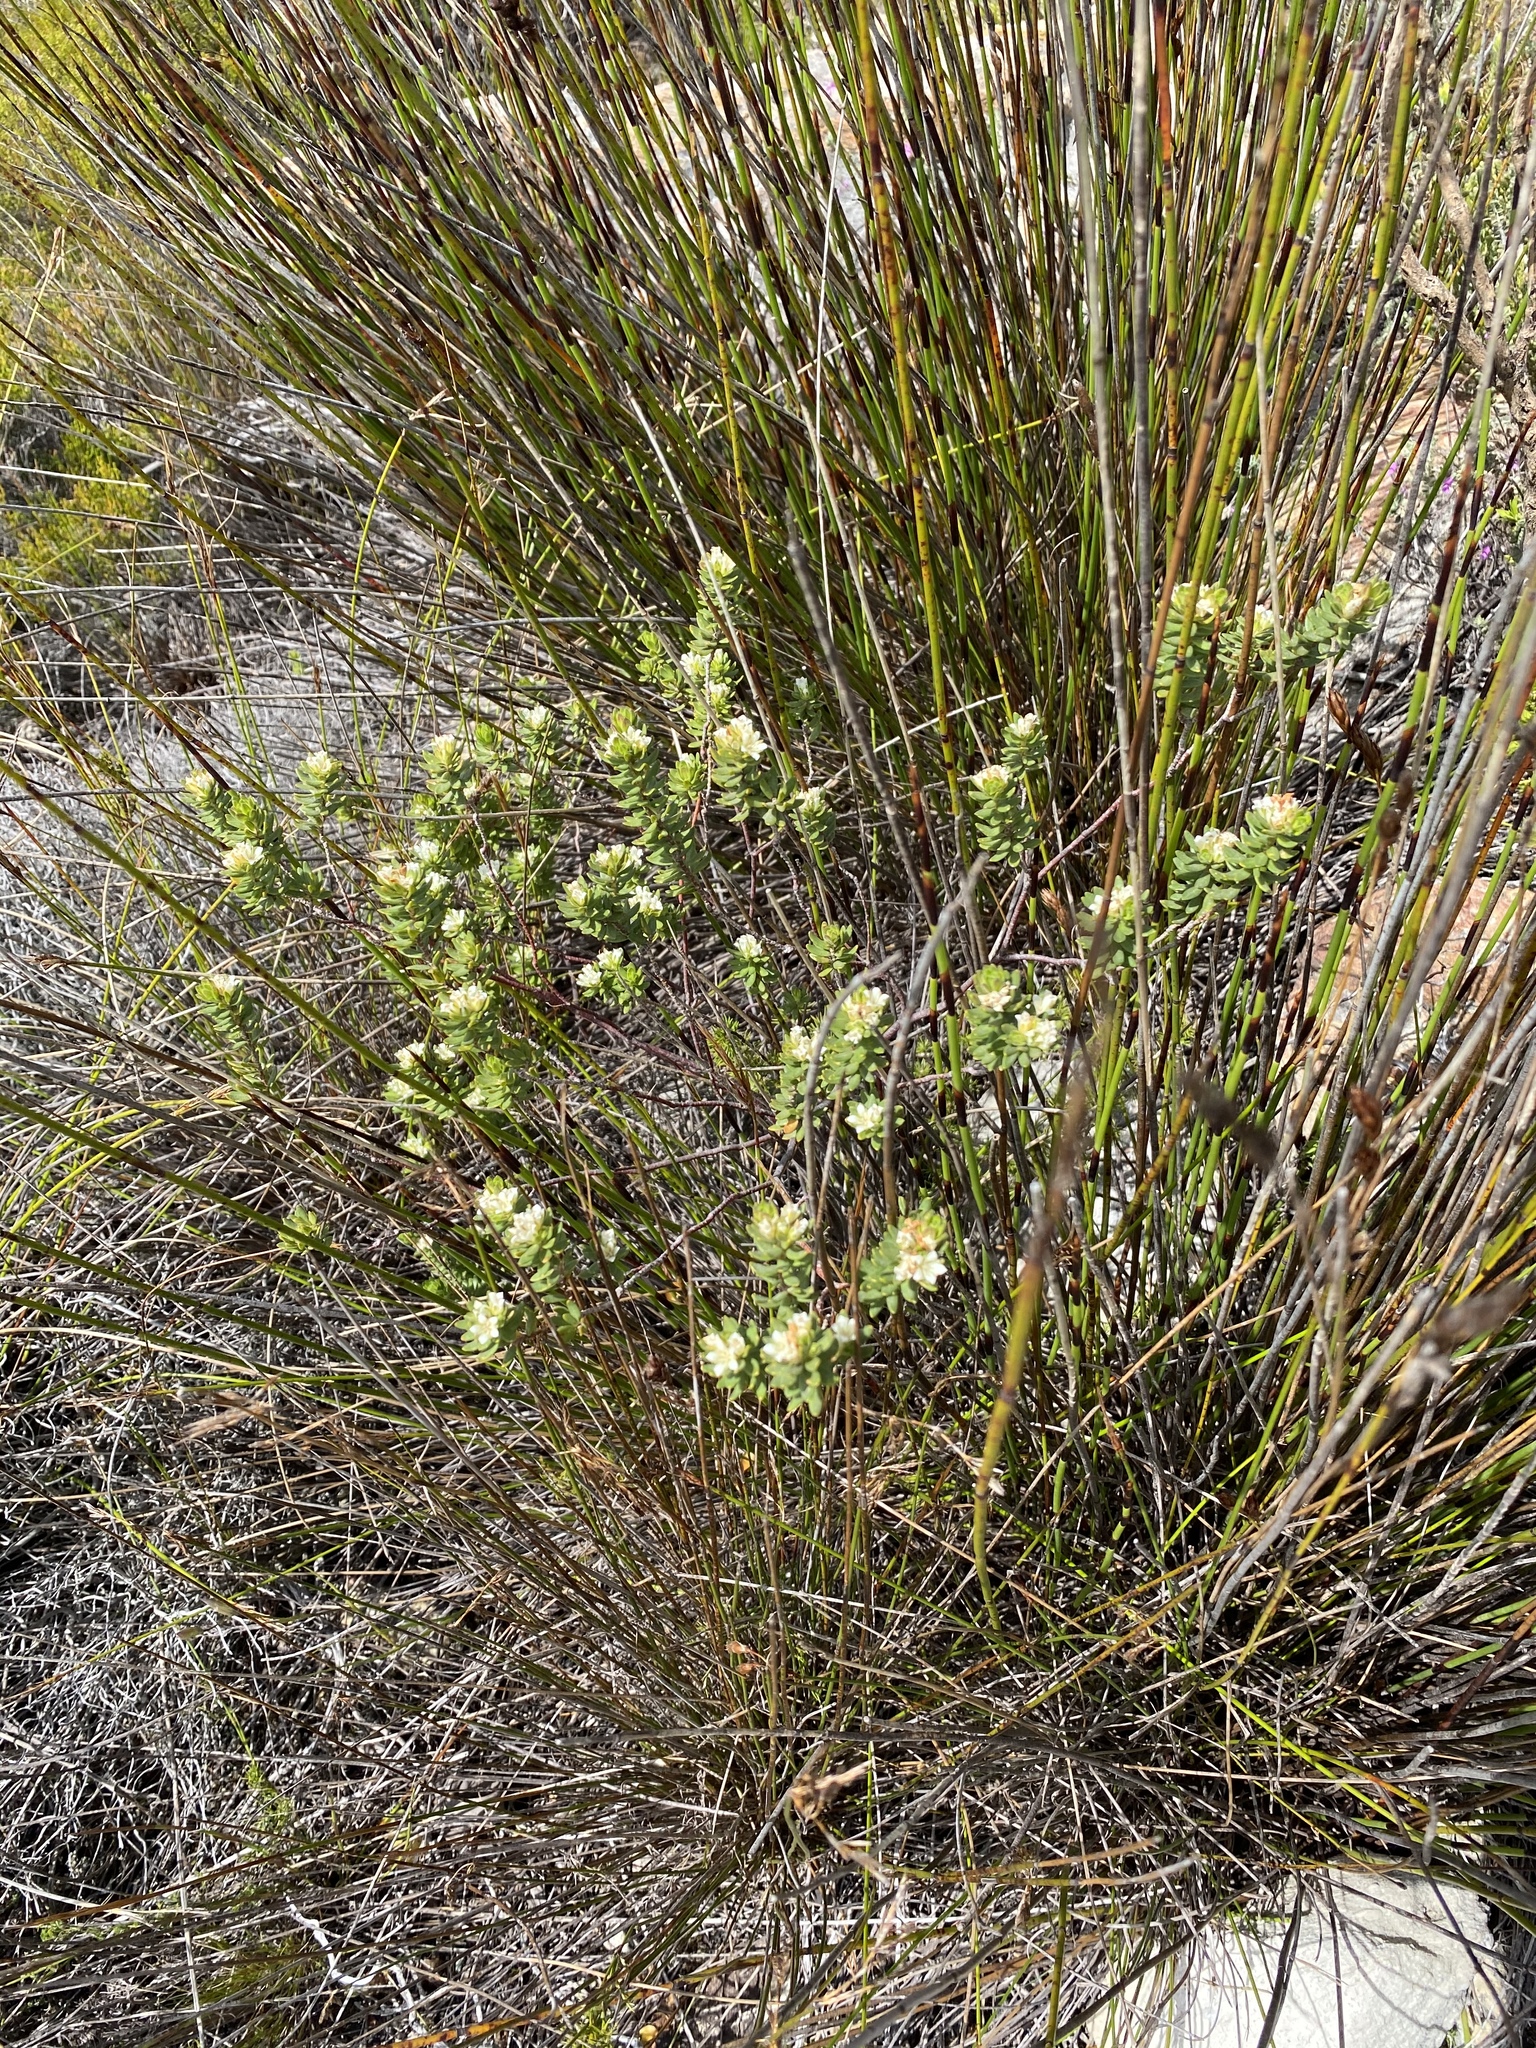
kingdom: Plantae
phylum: Tracheophyta
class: Magnoliopsida
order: Sapindales
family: Rutaceae
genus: Agathosma
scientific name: Agathosma rosmarinifolia
